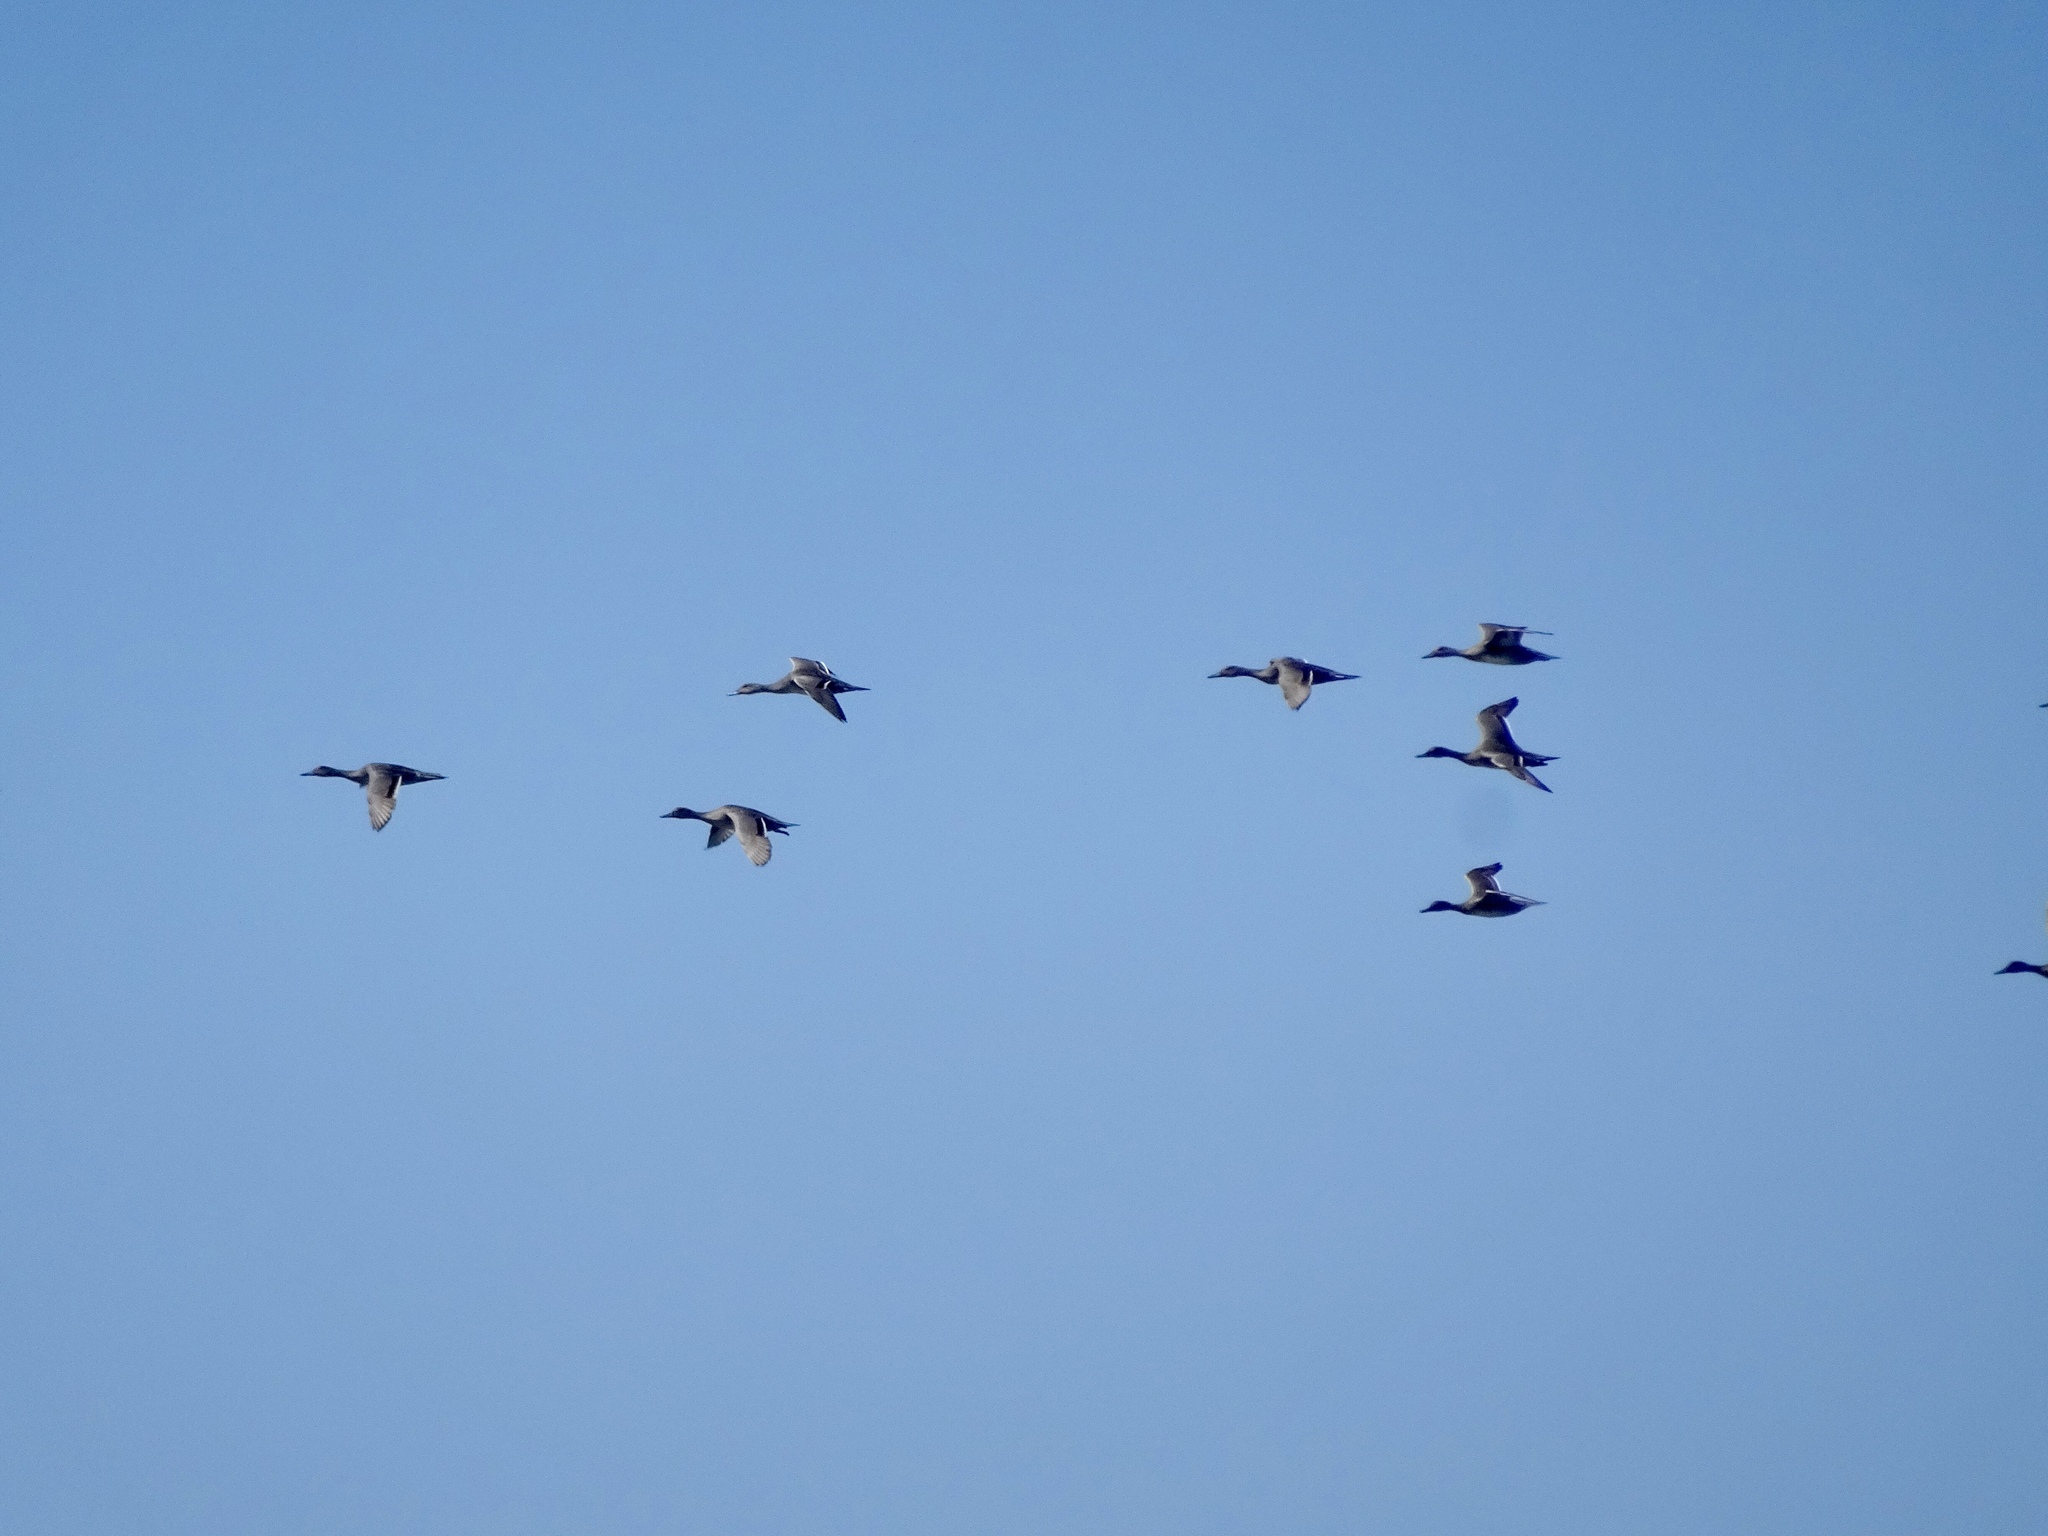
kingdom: Animalia
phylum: Chordata
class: Aves
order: Anseriformes
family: Anatidae
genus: Anas
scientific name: Anas acuta
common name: Northern pintail
